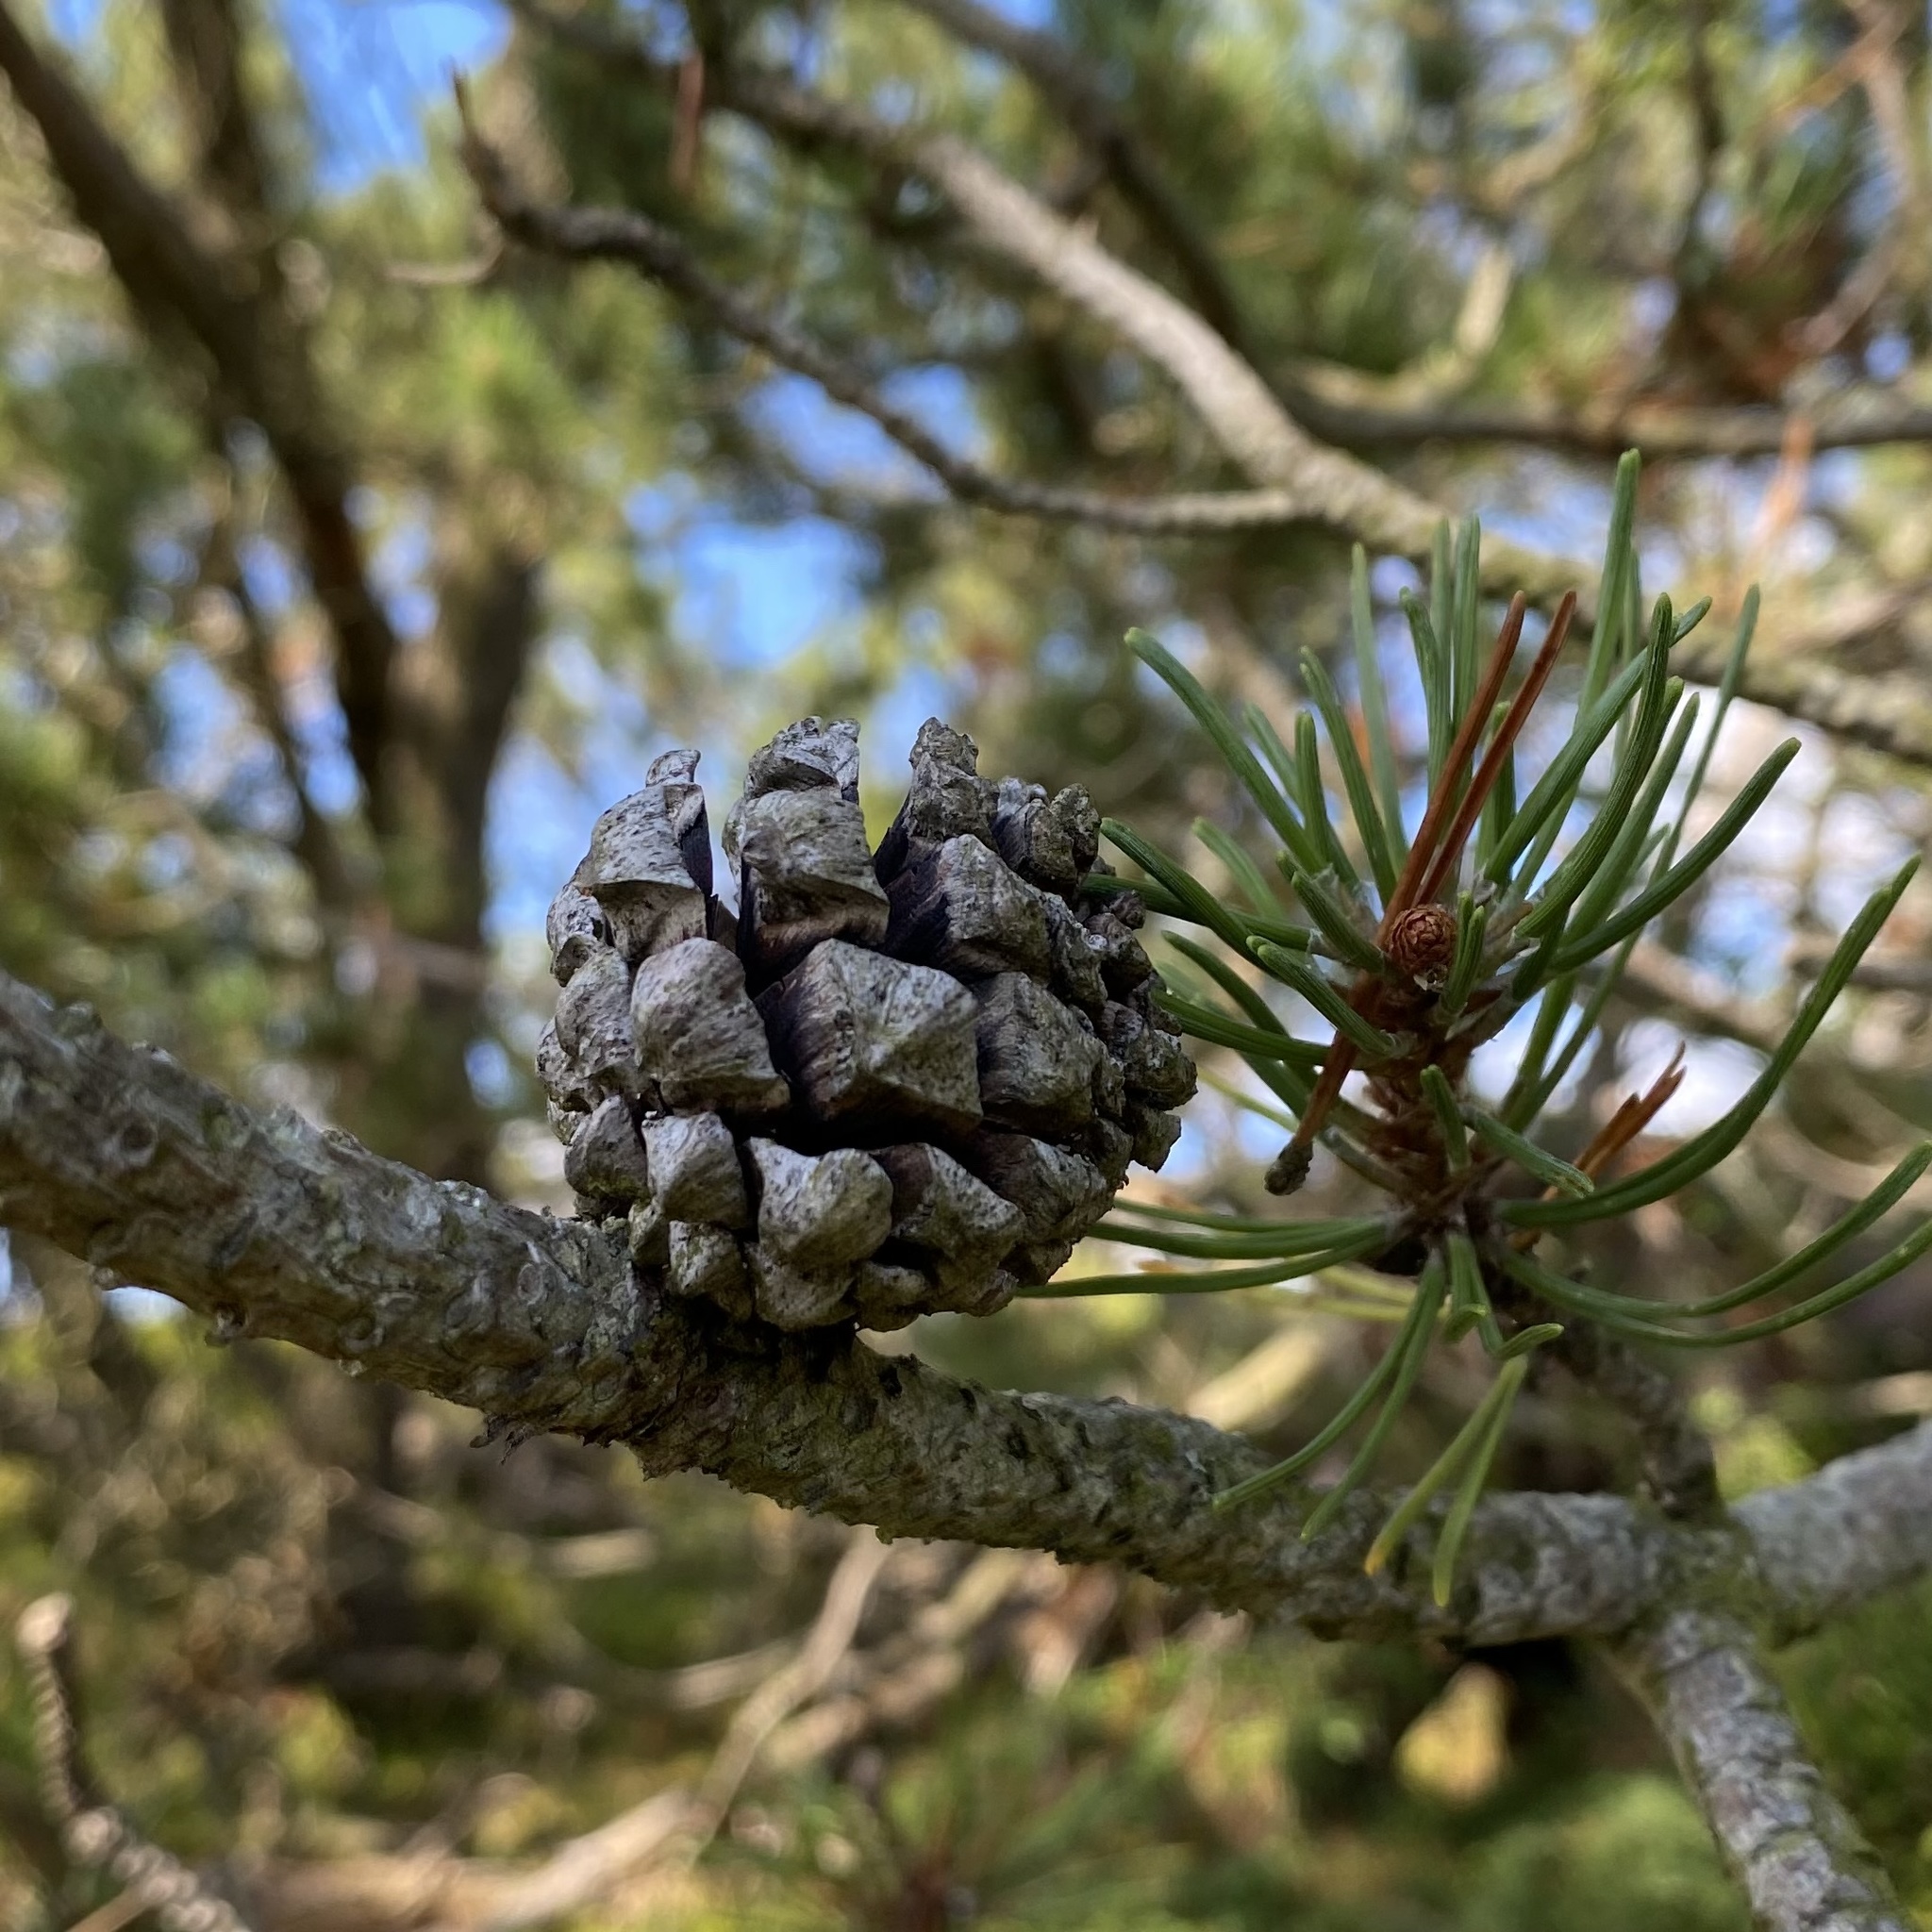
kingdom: Plantae
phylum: Tracheophyta
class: Pinopsida
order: Pinales
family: Pinaceae
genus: Pinus
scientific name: Pinus sylvestris
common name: Scots pine
